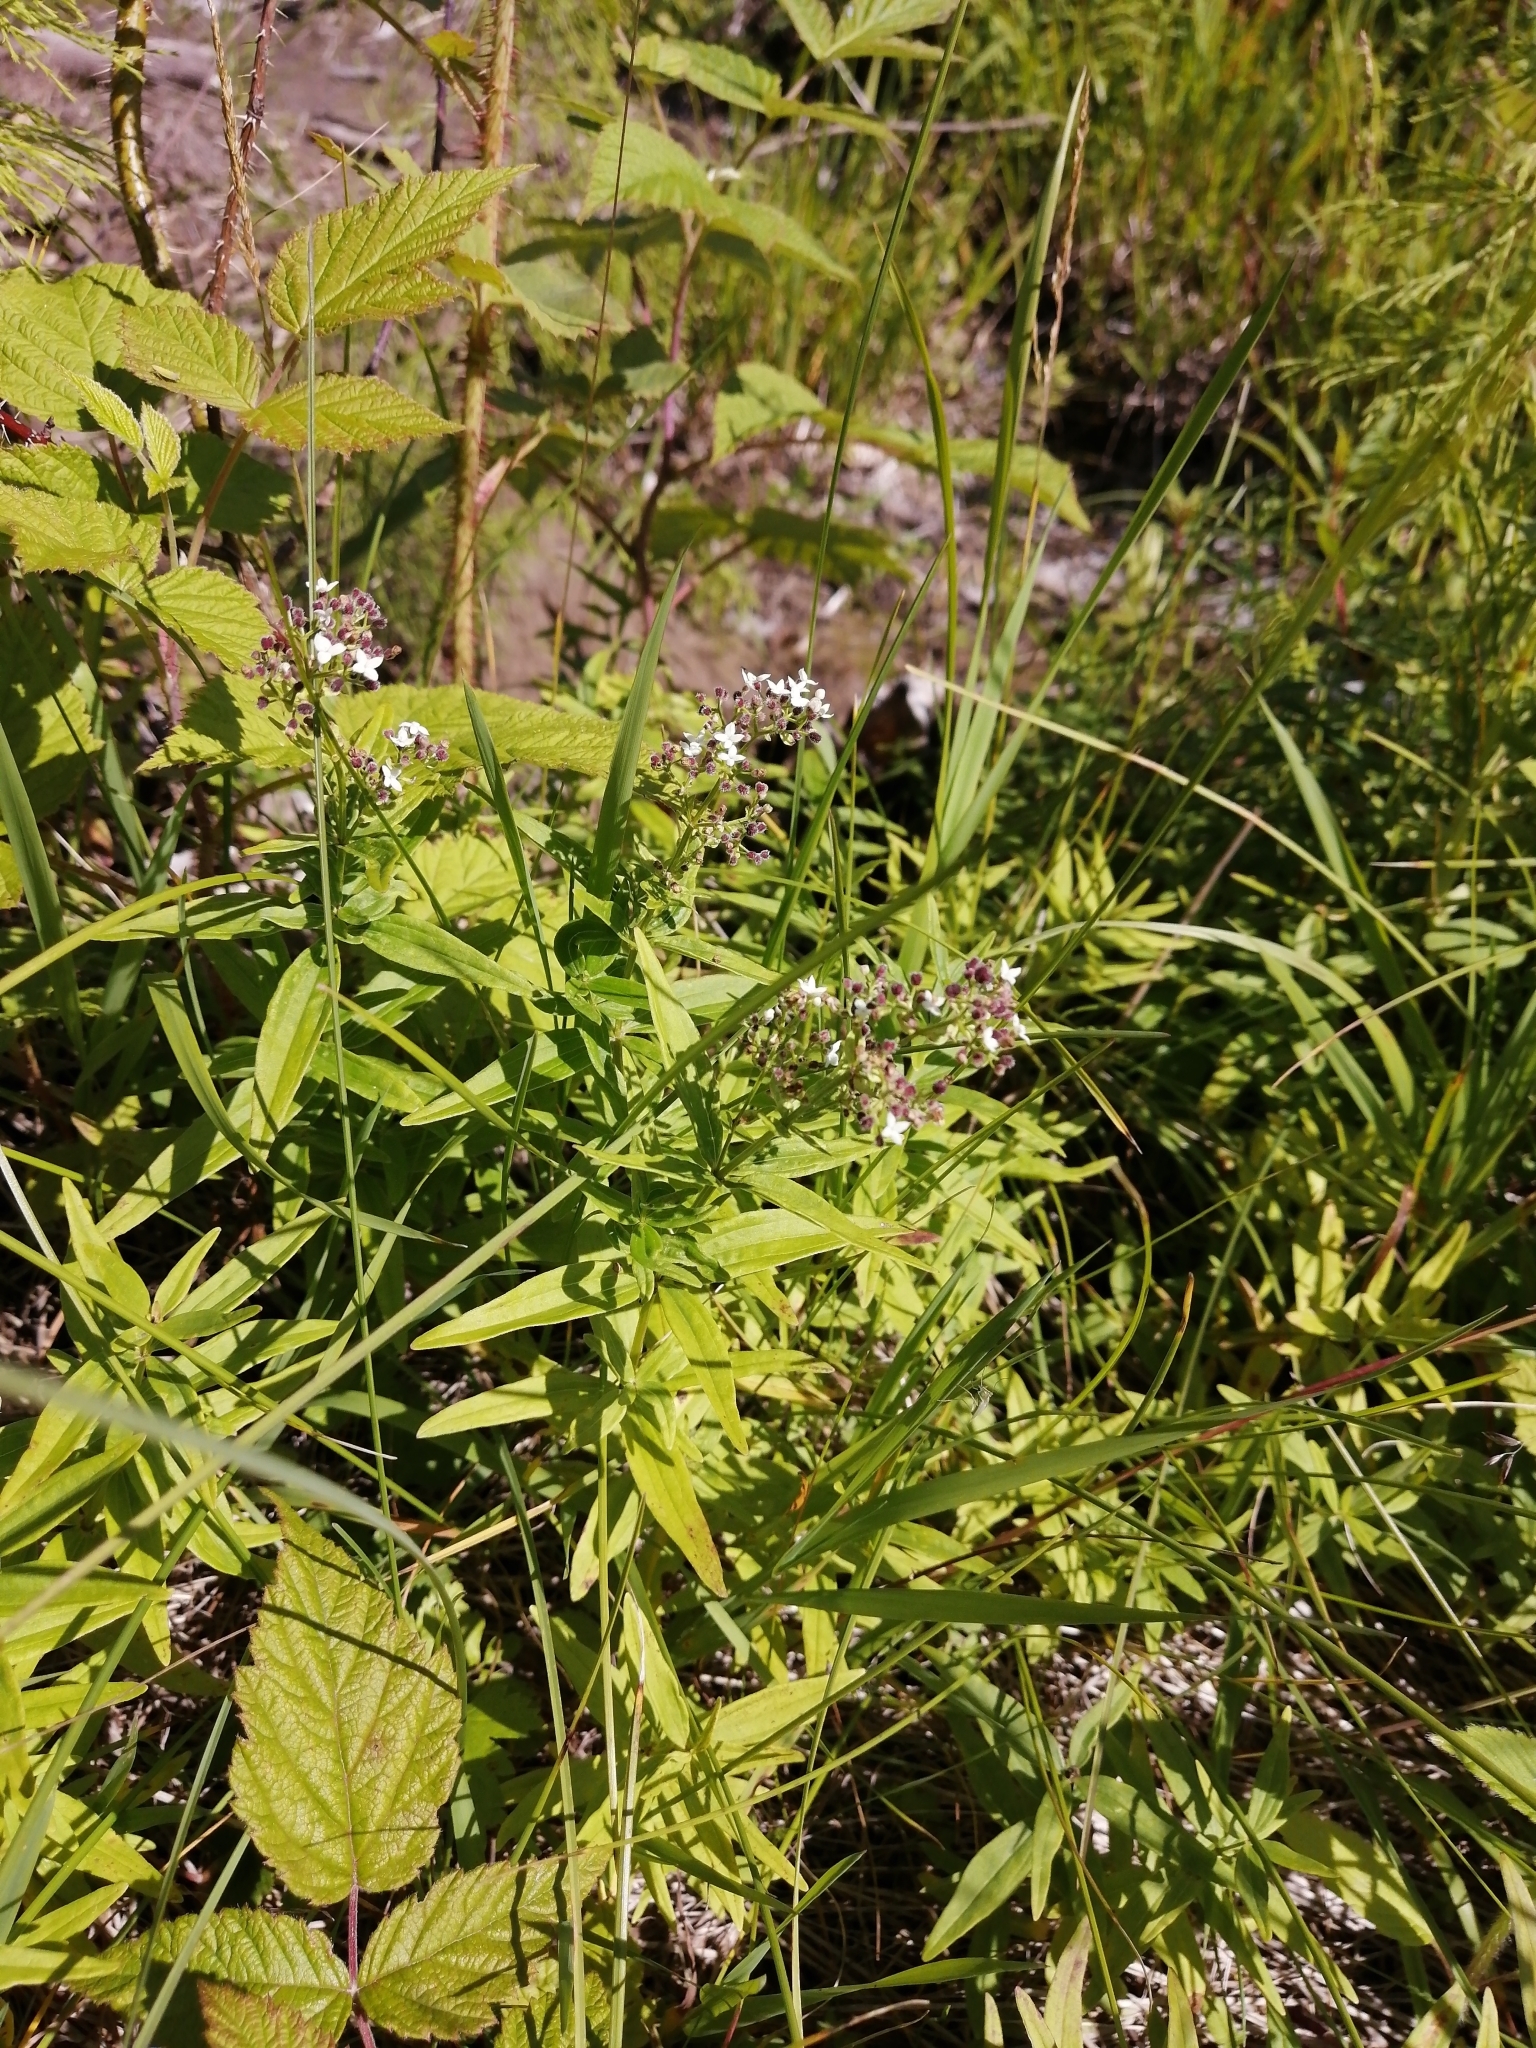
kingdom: Plantae
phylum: Tracheophyta
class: Magnoliopsida
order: Gentianales
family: Rubiaceae
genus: Galium
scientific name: Galium boreale
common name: Northern bedstraw
